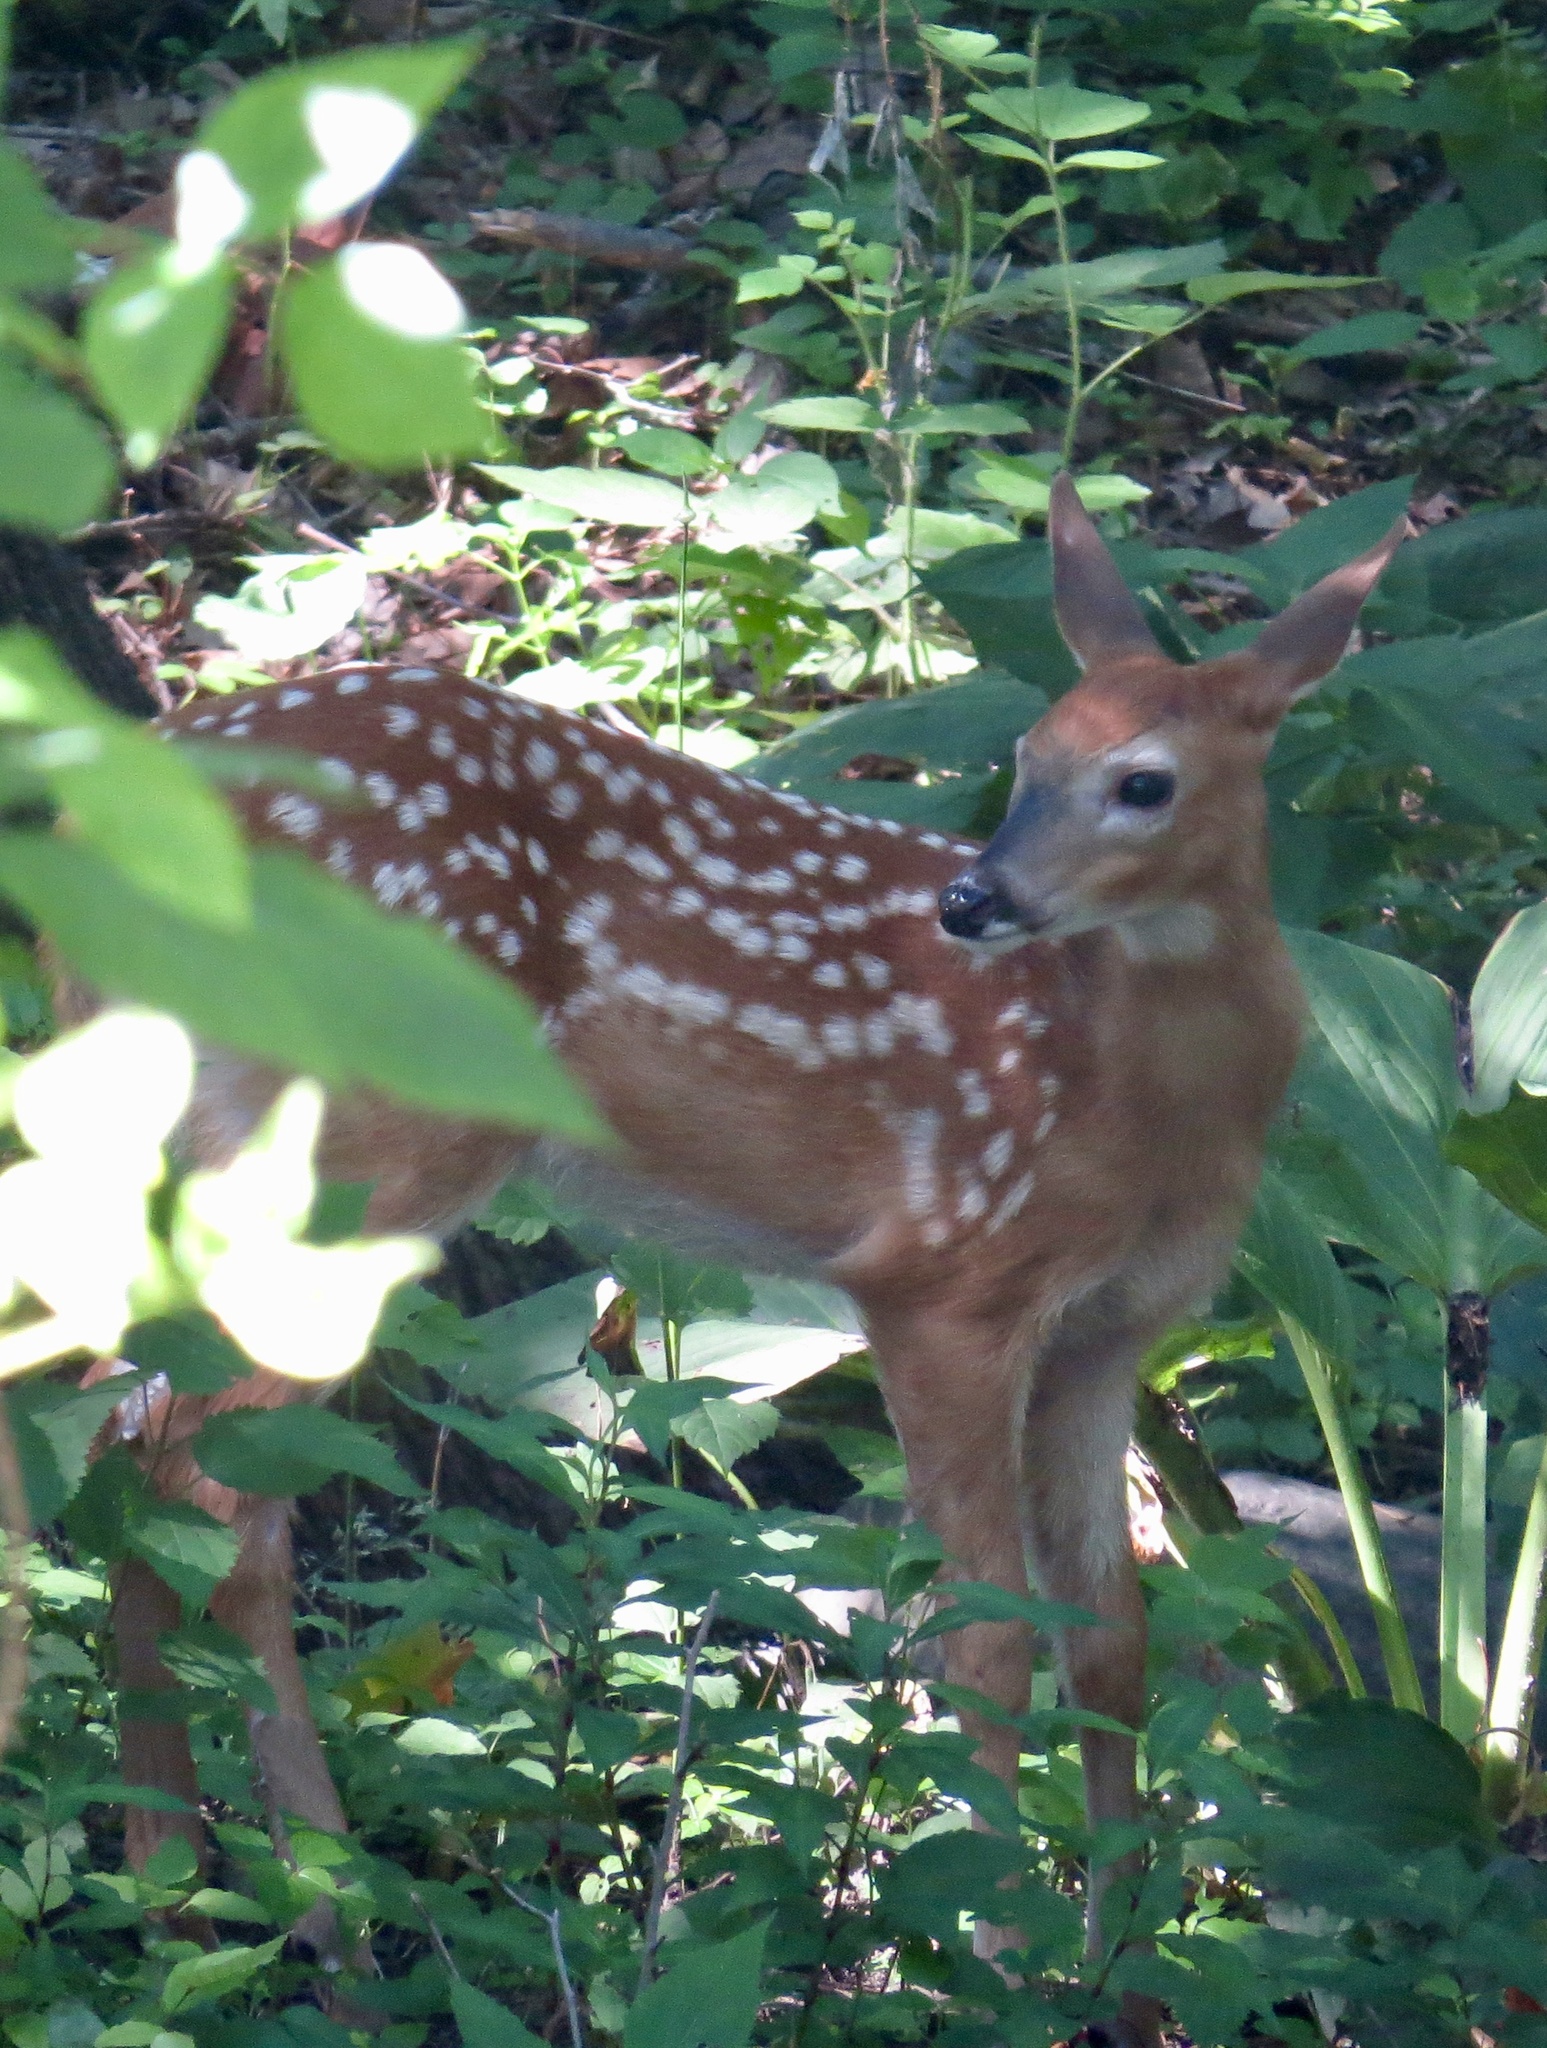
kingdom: Animalia
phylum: Chordata
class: Mammalia
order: Artiodactyla
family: Cervidae
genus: Odocoileus
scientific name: Odocoileus virginianus
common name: White-tailed deer
